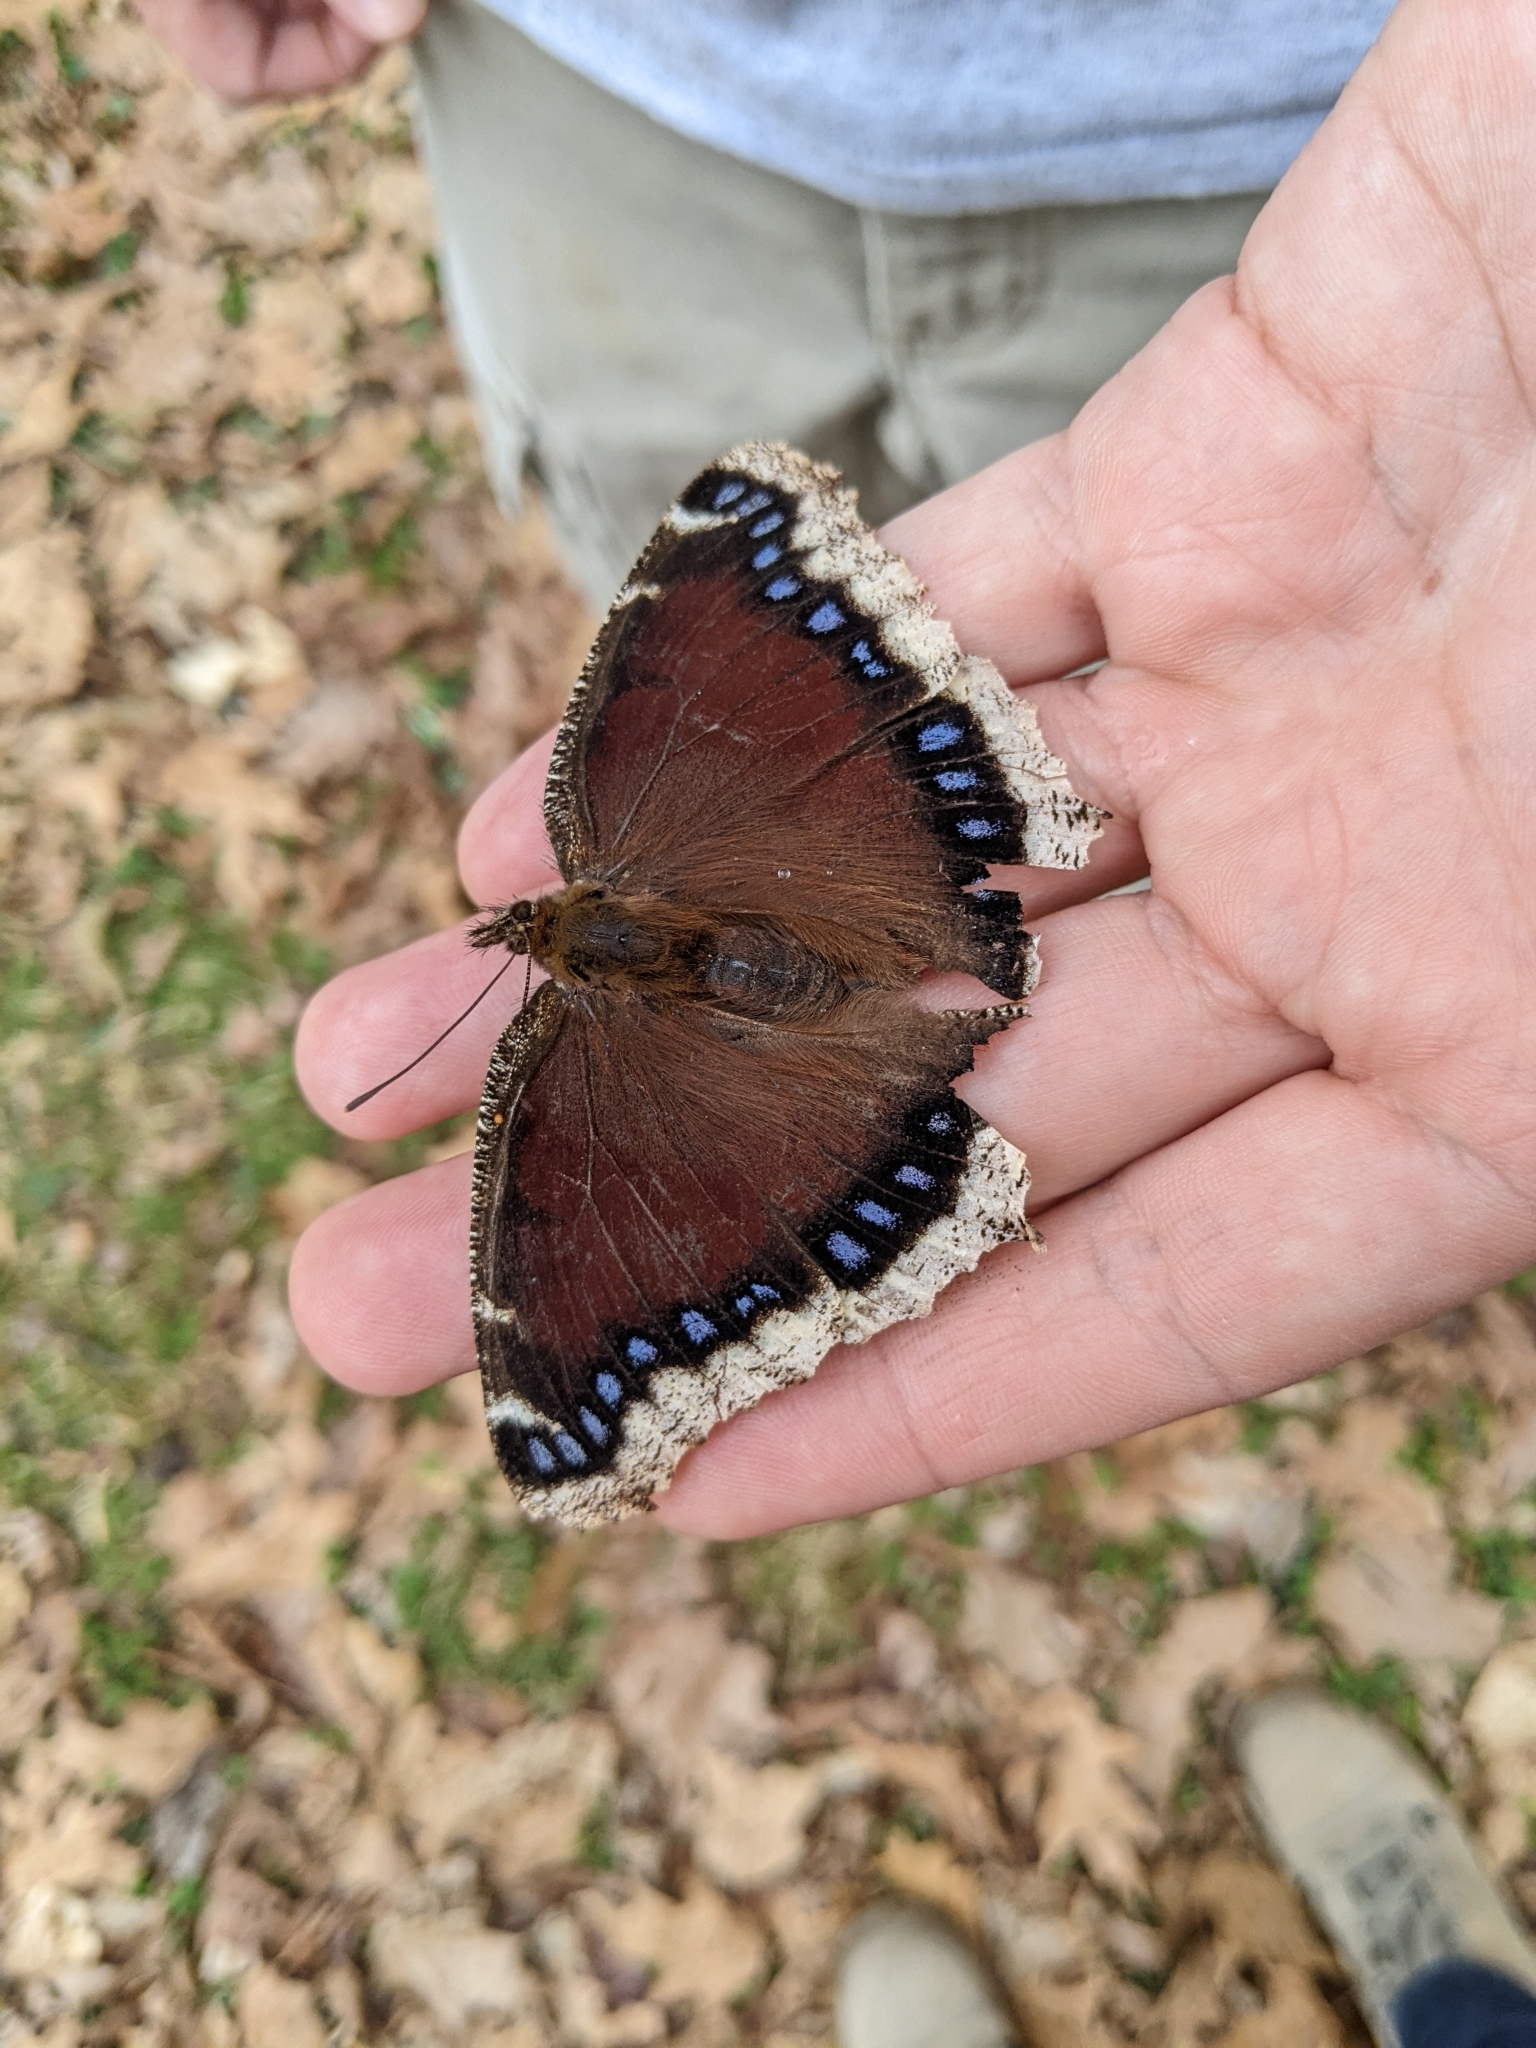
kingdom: Animalia
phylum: Arthropoda
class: Insecta
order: Lepidoptera
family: Nymphalidae
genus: Nymphalis
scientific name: Nymphalis antiopa
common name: Camberwell beauty
